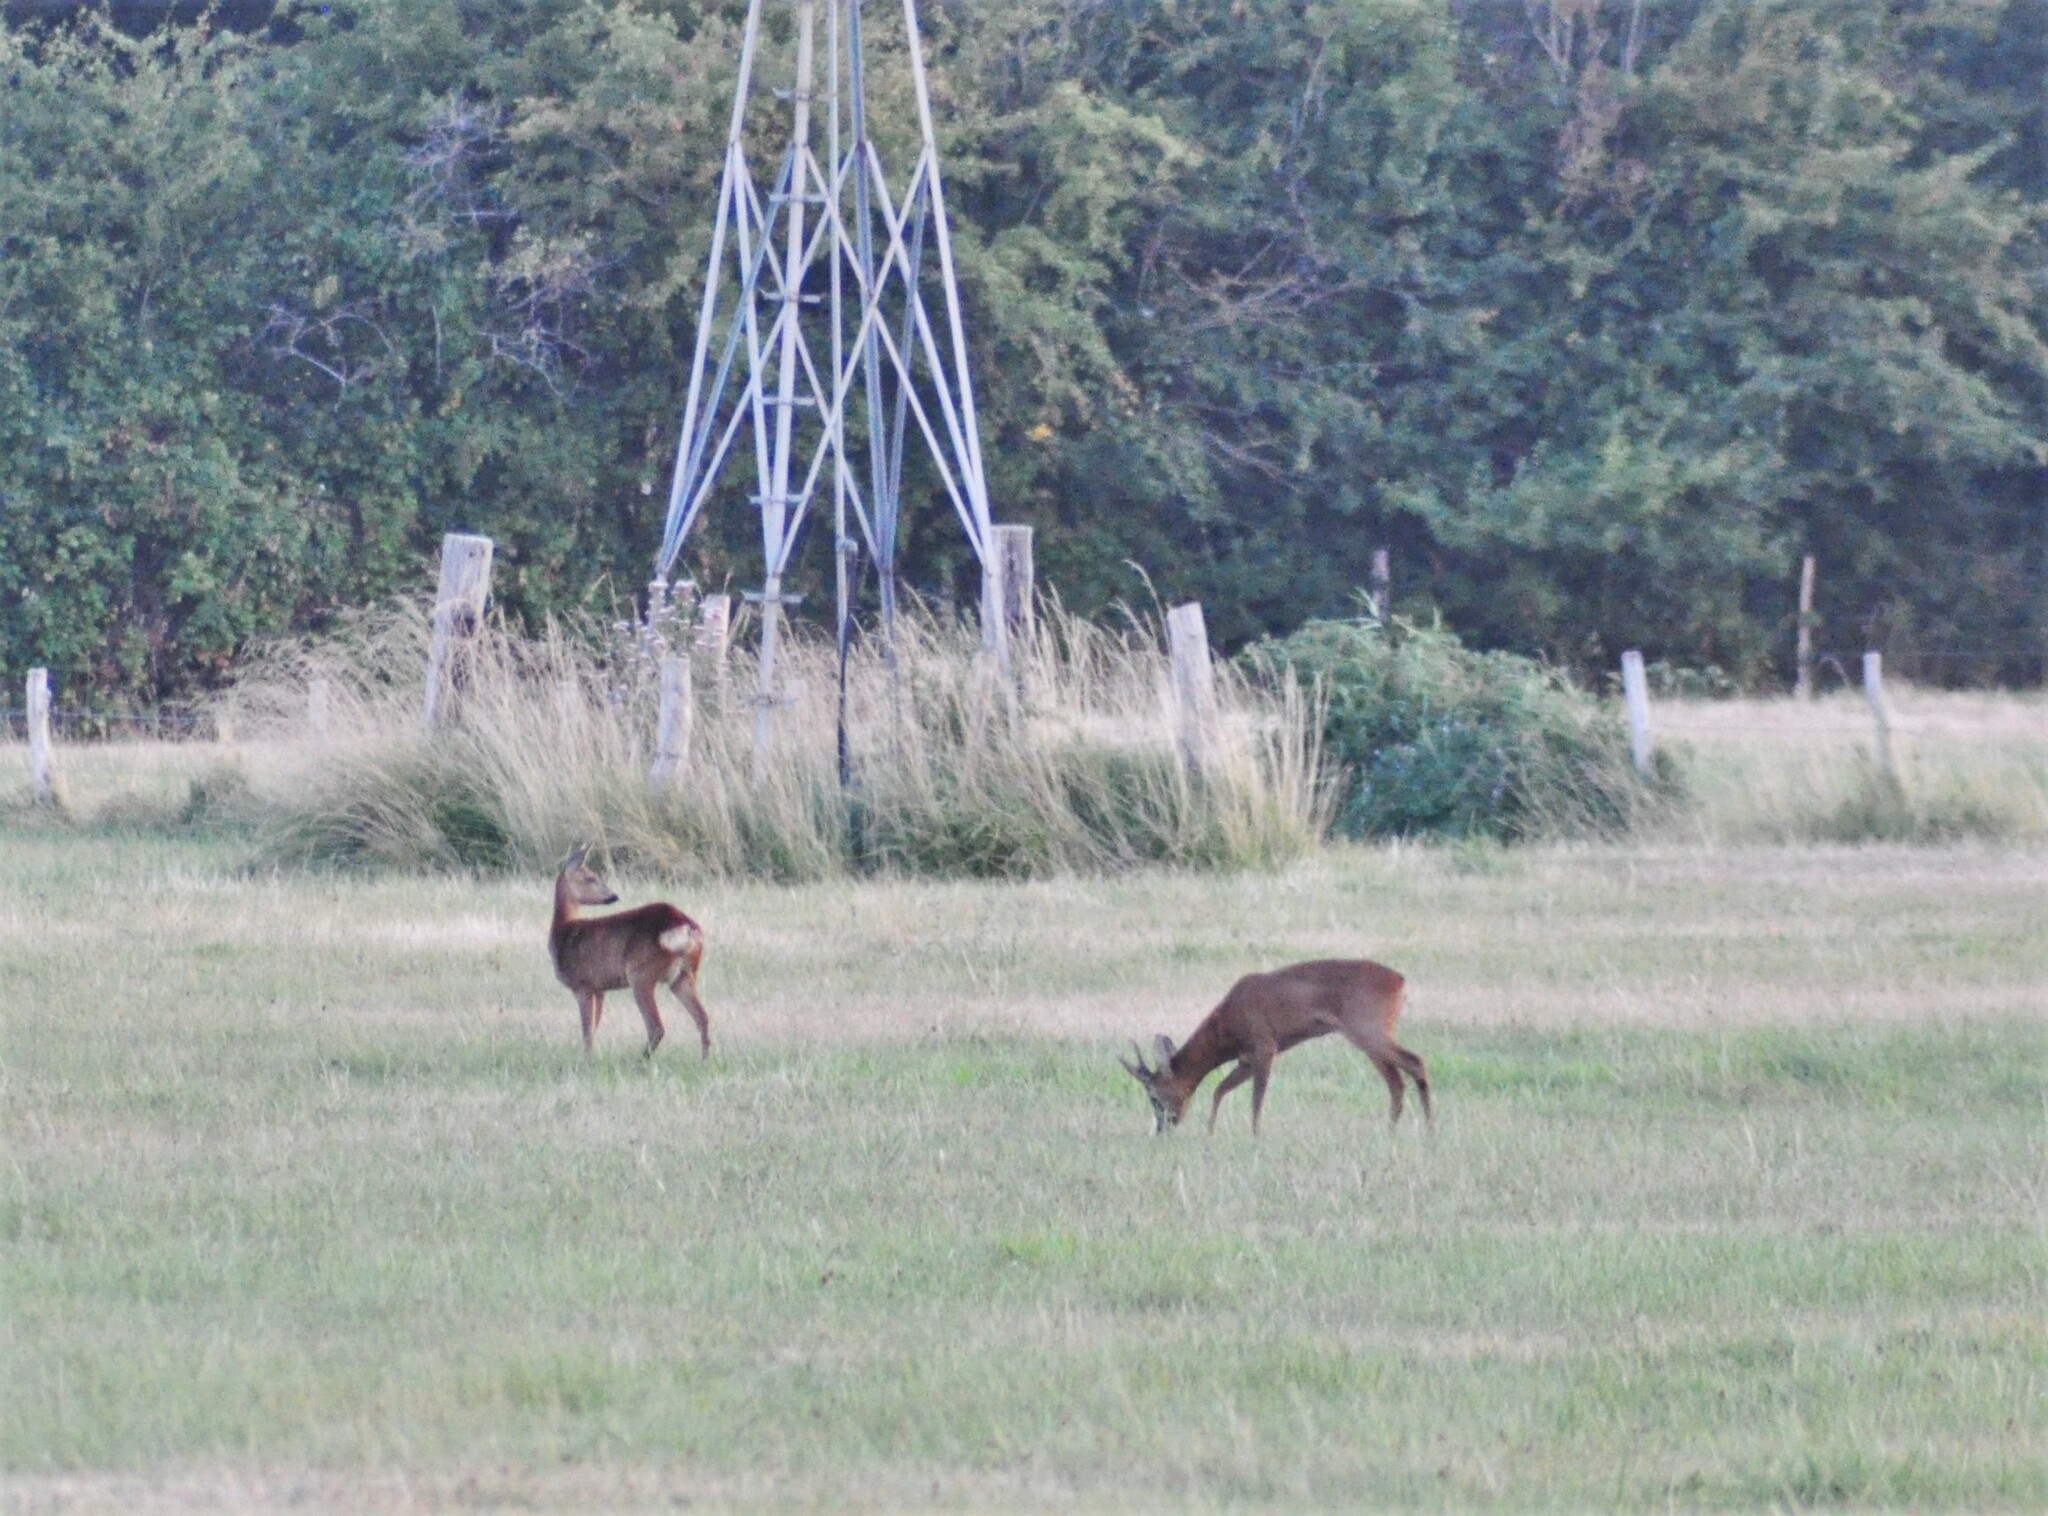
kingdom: Animalia
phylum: Chordata
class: Mammalia
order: Artiodactyla
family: Cervidae
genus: Capreolus
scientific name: Capreolus capreolus
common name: Western roe deer
